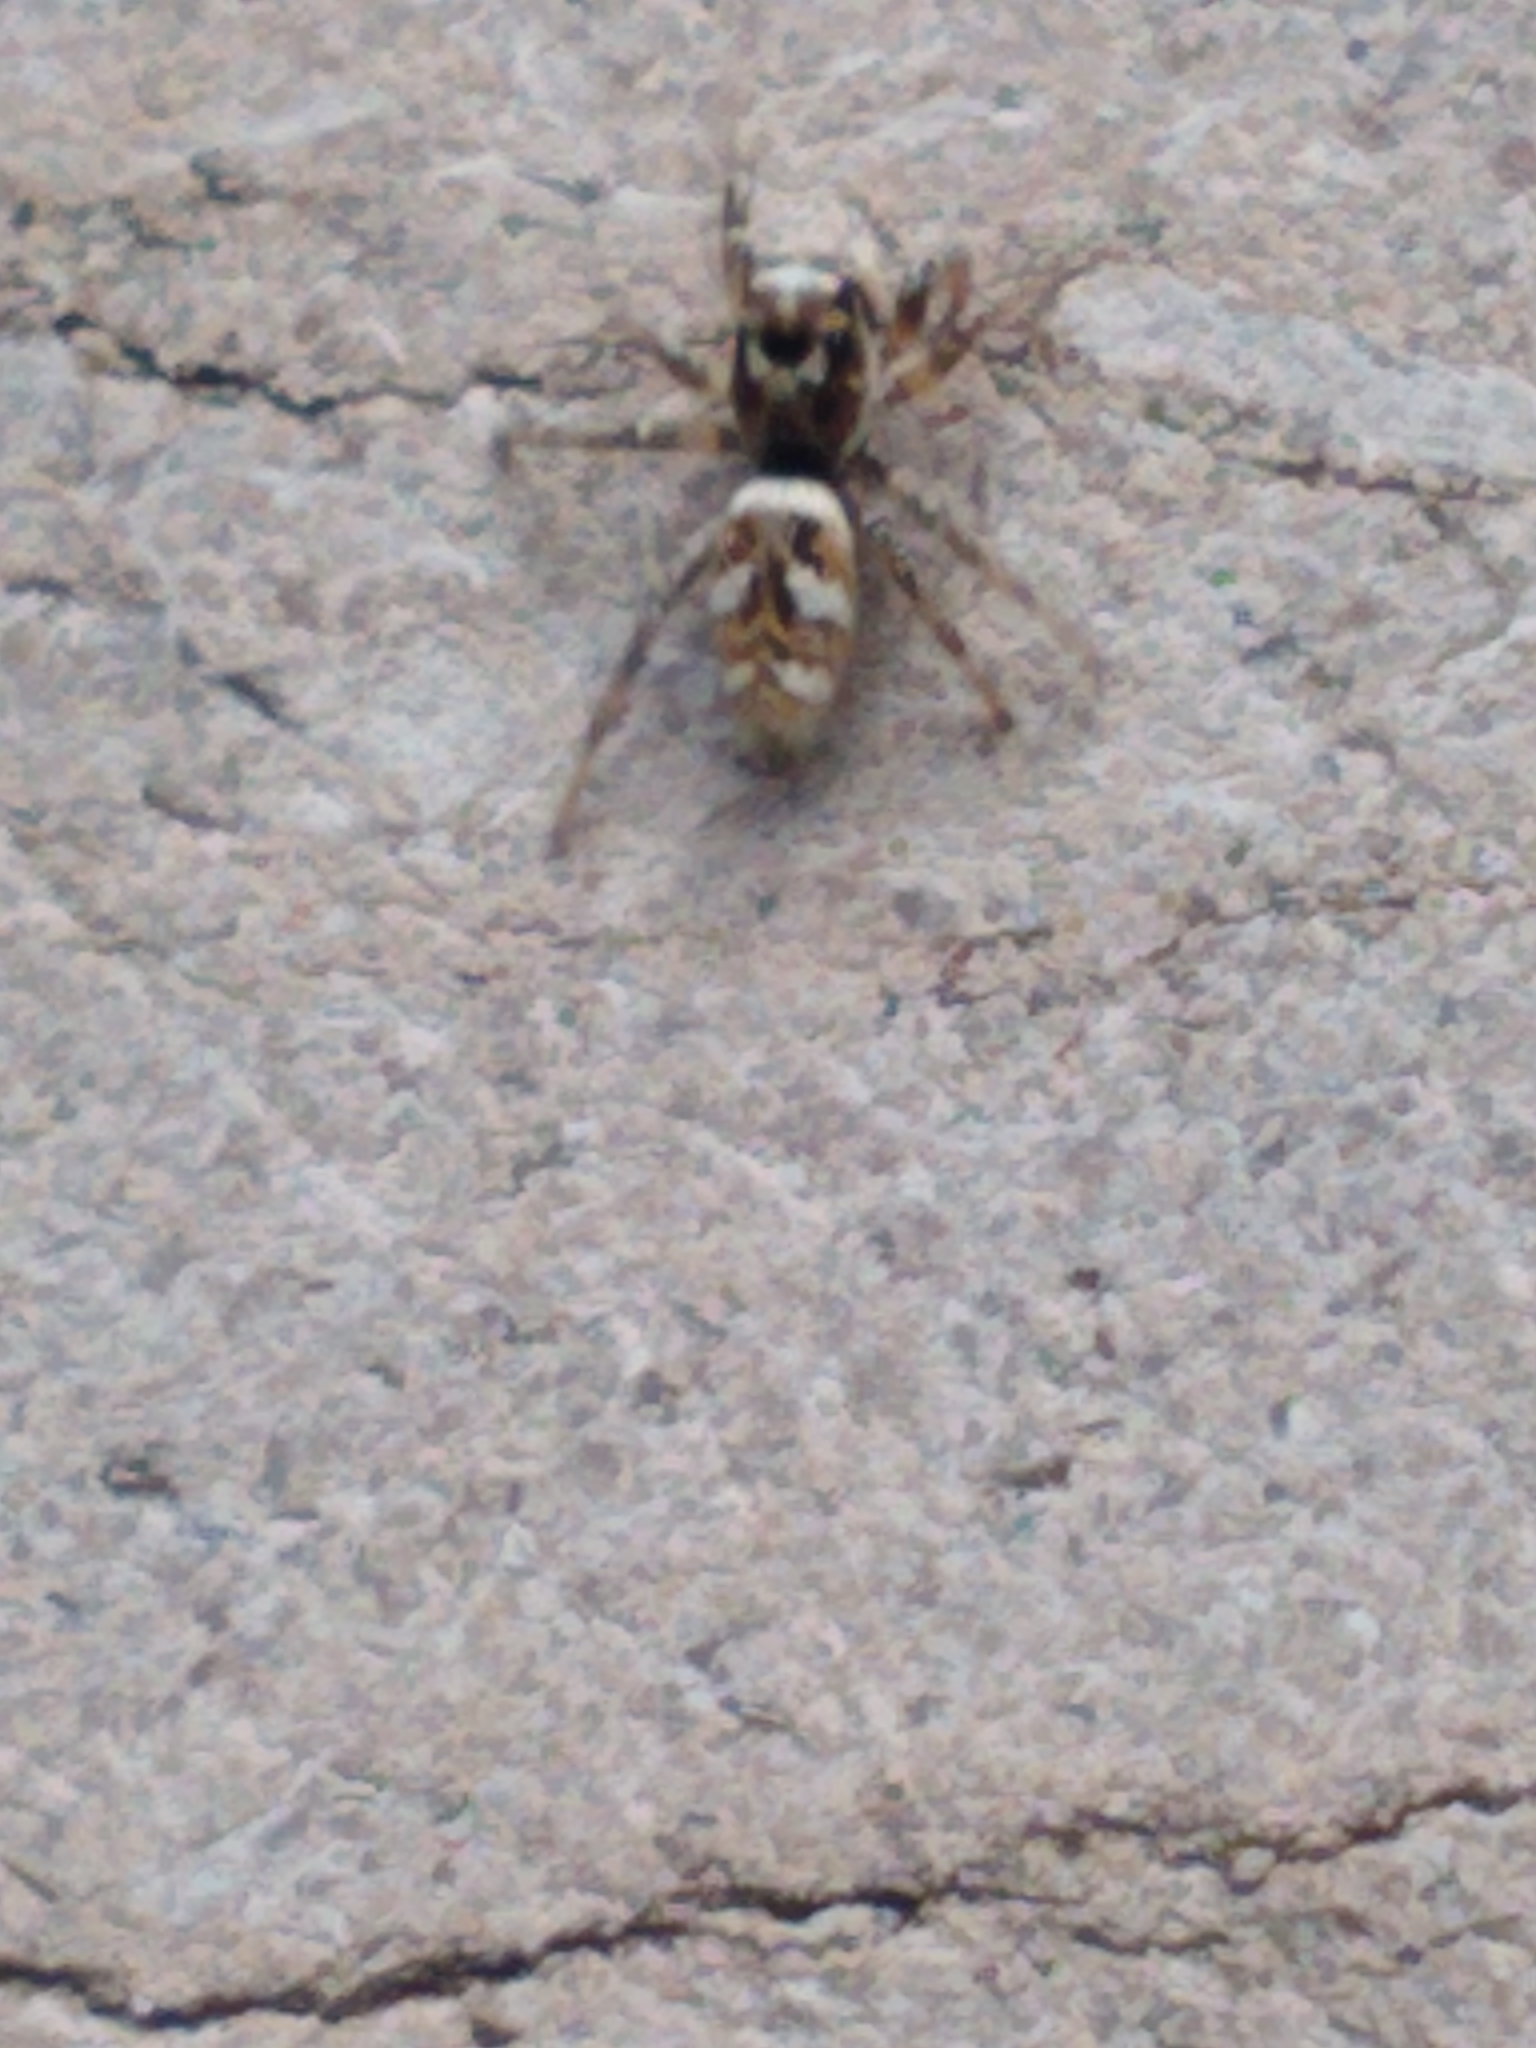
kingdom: Animalia
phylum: Arthropoda
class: Arachnida
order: Araneae
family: Salticidae
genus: Salticus
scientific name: Salticus scenicus
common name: Zebra jumper
